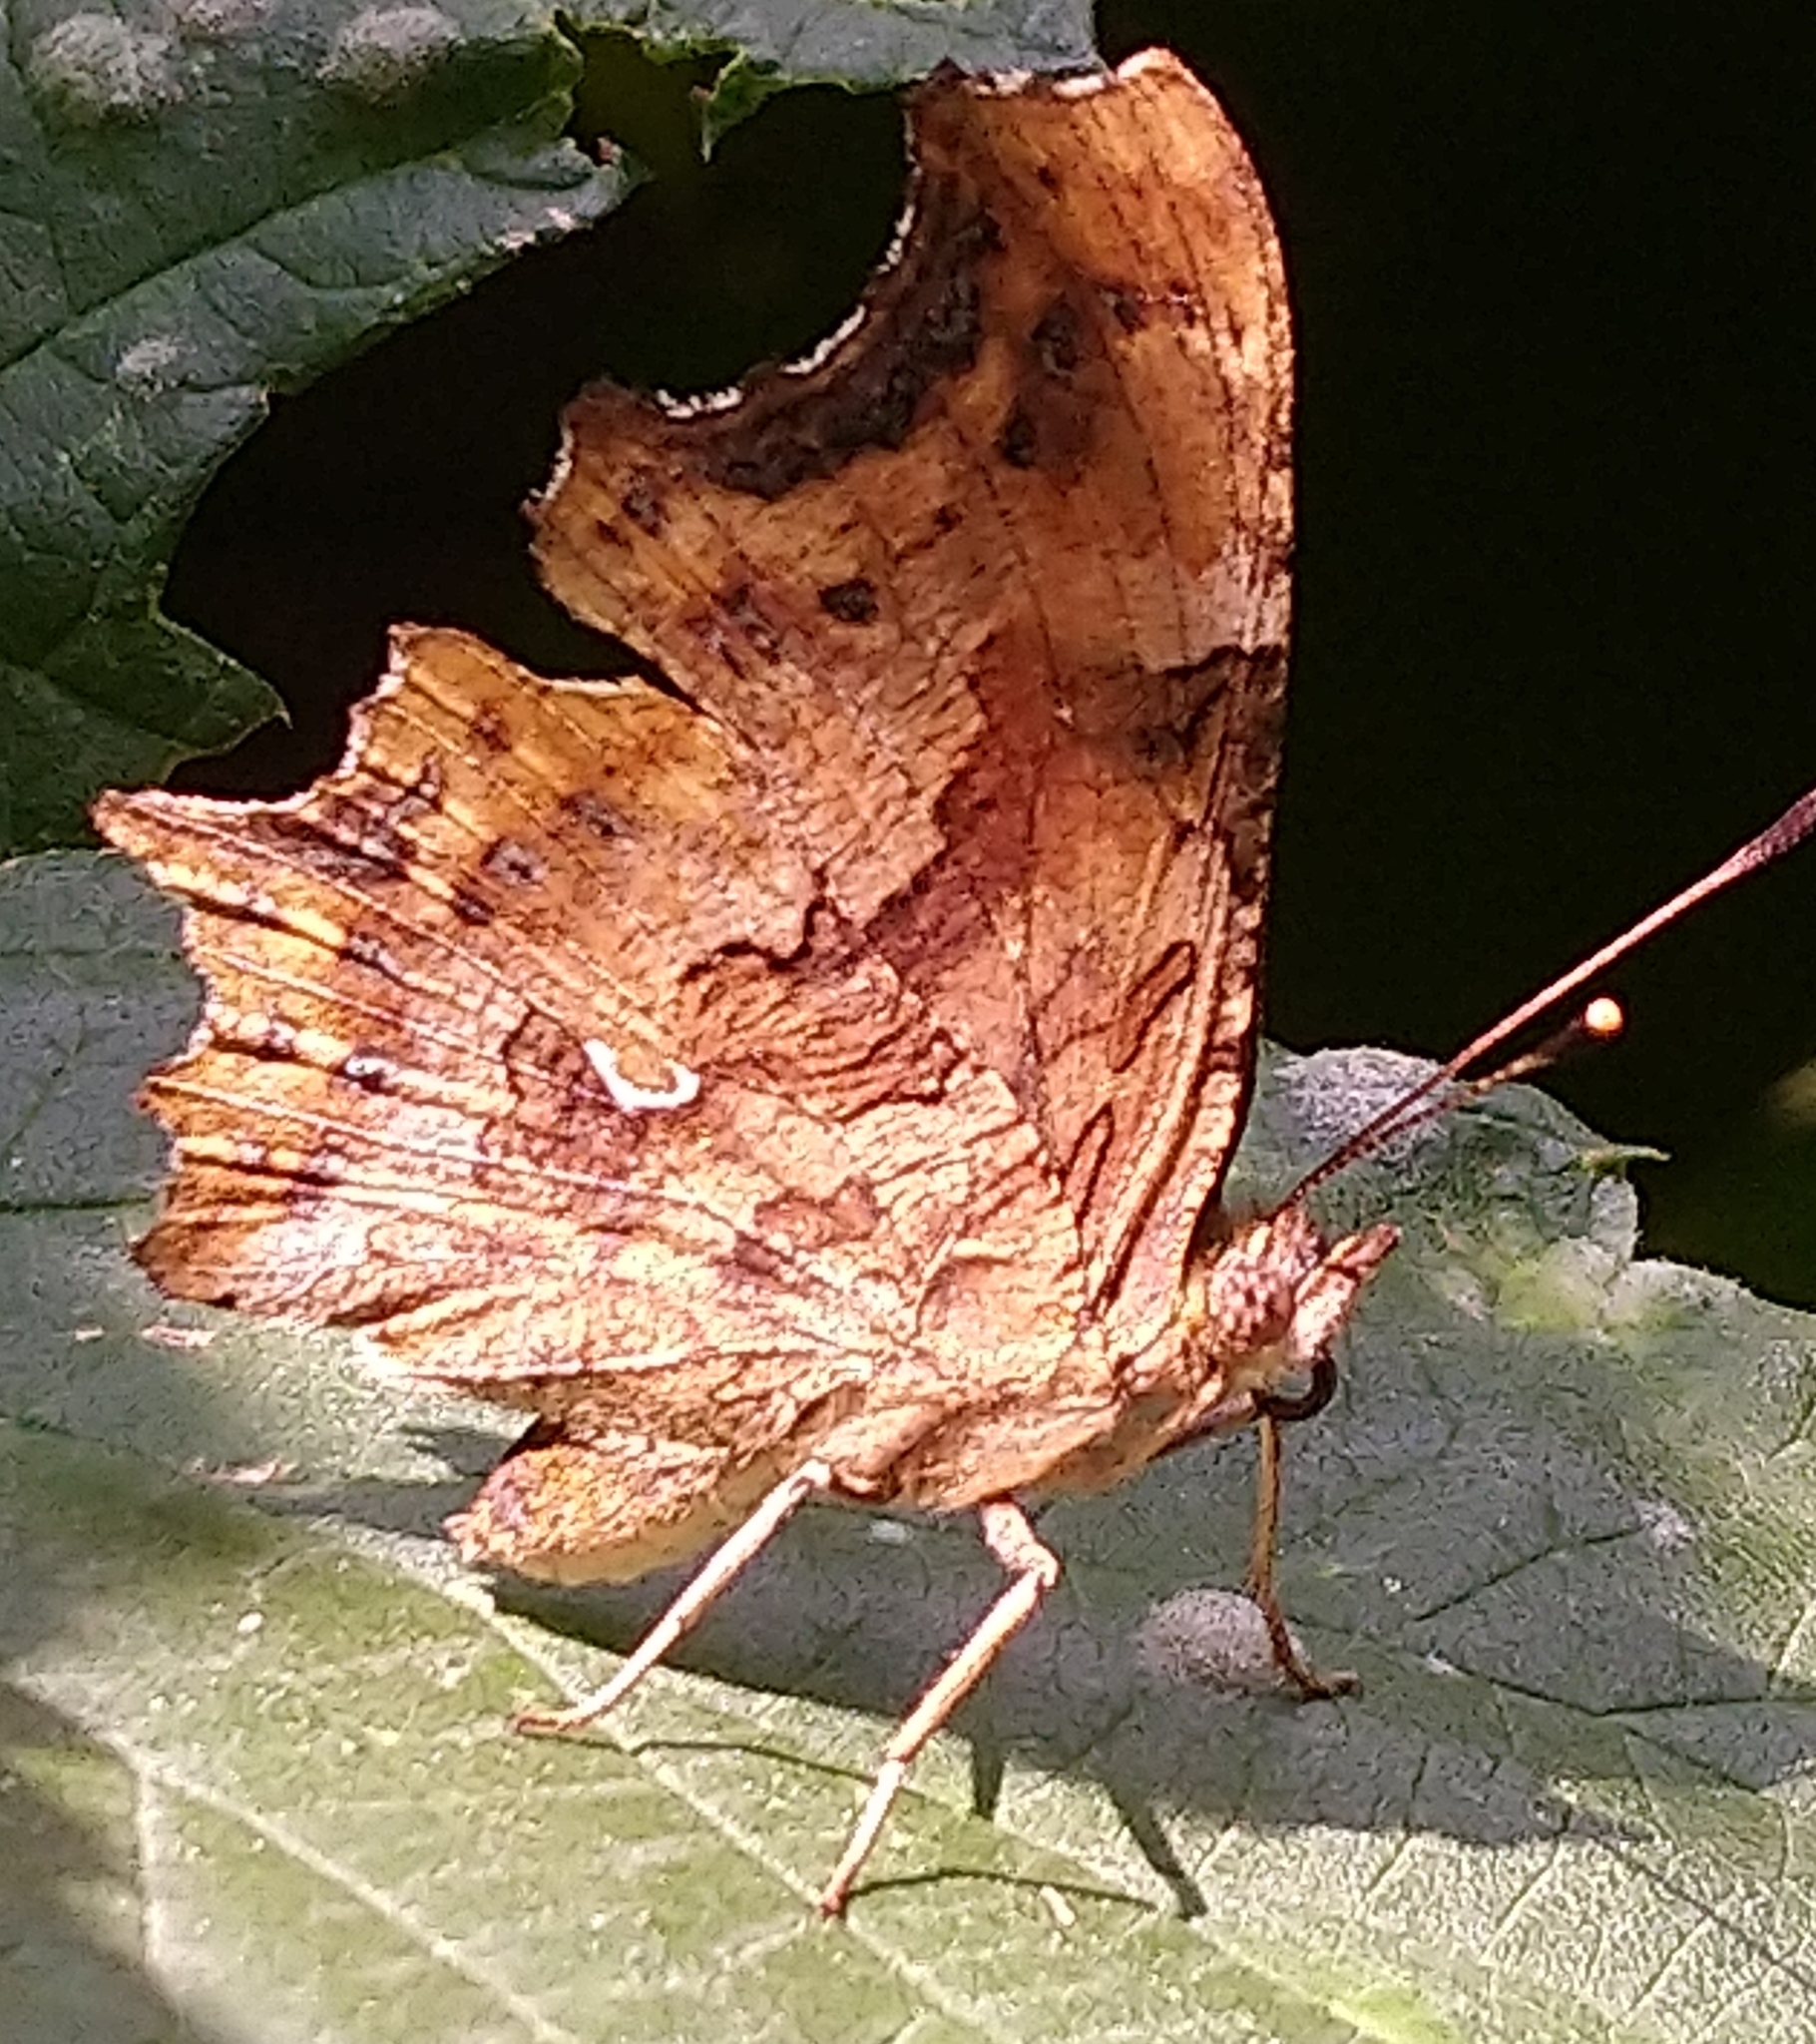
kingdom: Animalia
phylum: Arthropoda
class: Insecta
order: Lepidoptera
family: Nymphalidae
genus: Polygonia
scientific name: Polygonia c-album
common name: Comma
